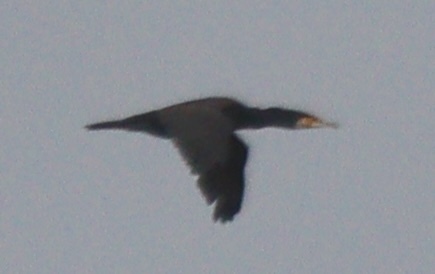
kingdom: Animalia
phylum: Chordata
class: Aves
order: Suliformes
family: Phalacrocoracidae
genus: Phalacrocorax
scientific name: Phalacrocorax carbo
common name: Great cormorant
